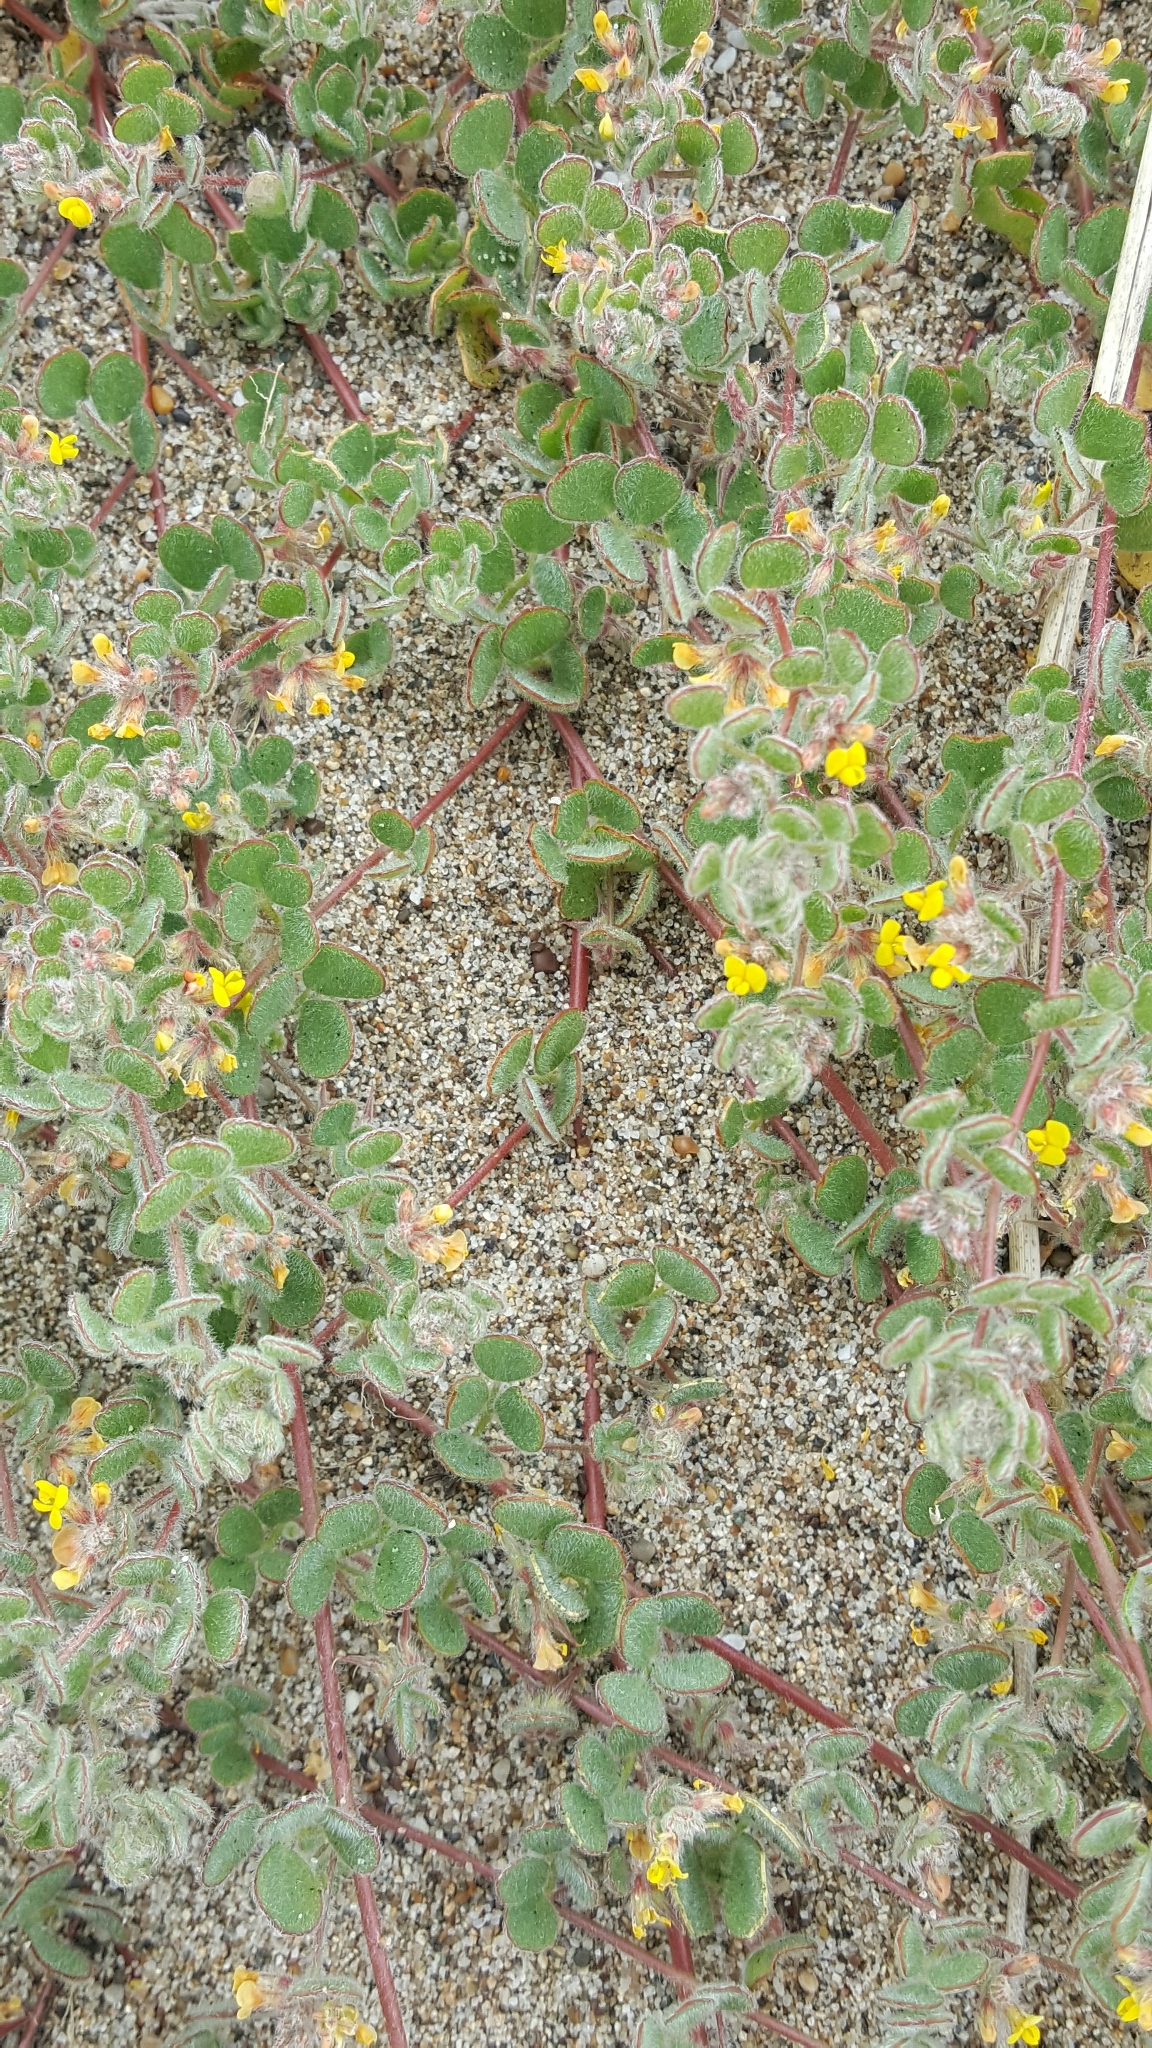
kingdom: Plantae
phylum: Tracheophyta
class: Magnoliopsida
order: Fabales
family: Fabaceae
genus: Acmispon
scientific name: Acmispon tomentosus
